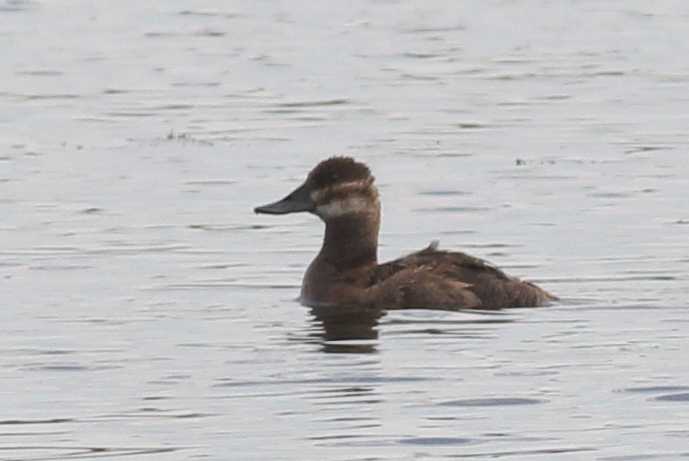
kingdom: Animalia
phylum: Chordata
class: Aves
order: Anseriformes
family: Anatidae
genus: Oxyura
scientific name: Oxyura jamaicensis
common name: Ruddy duck
